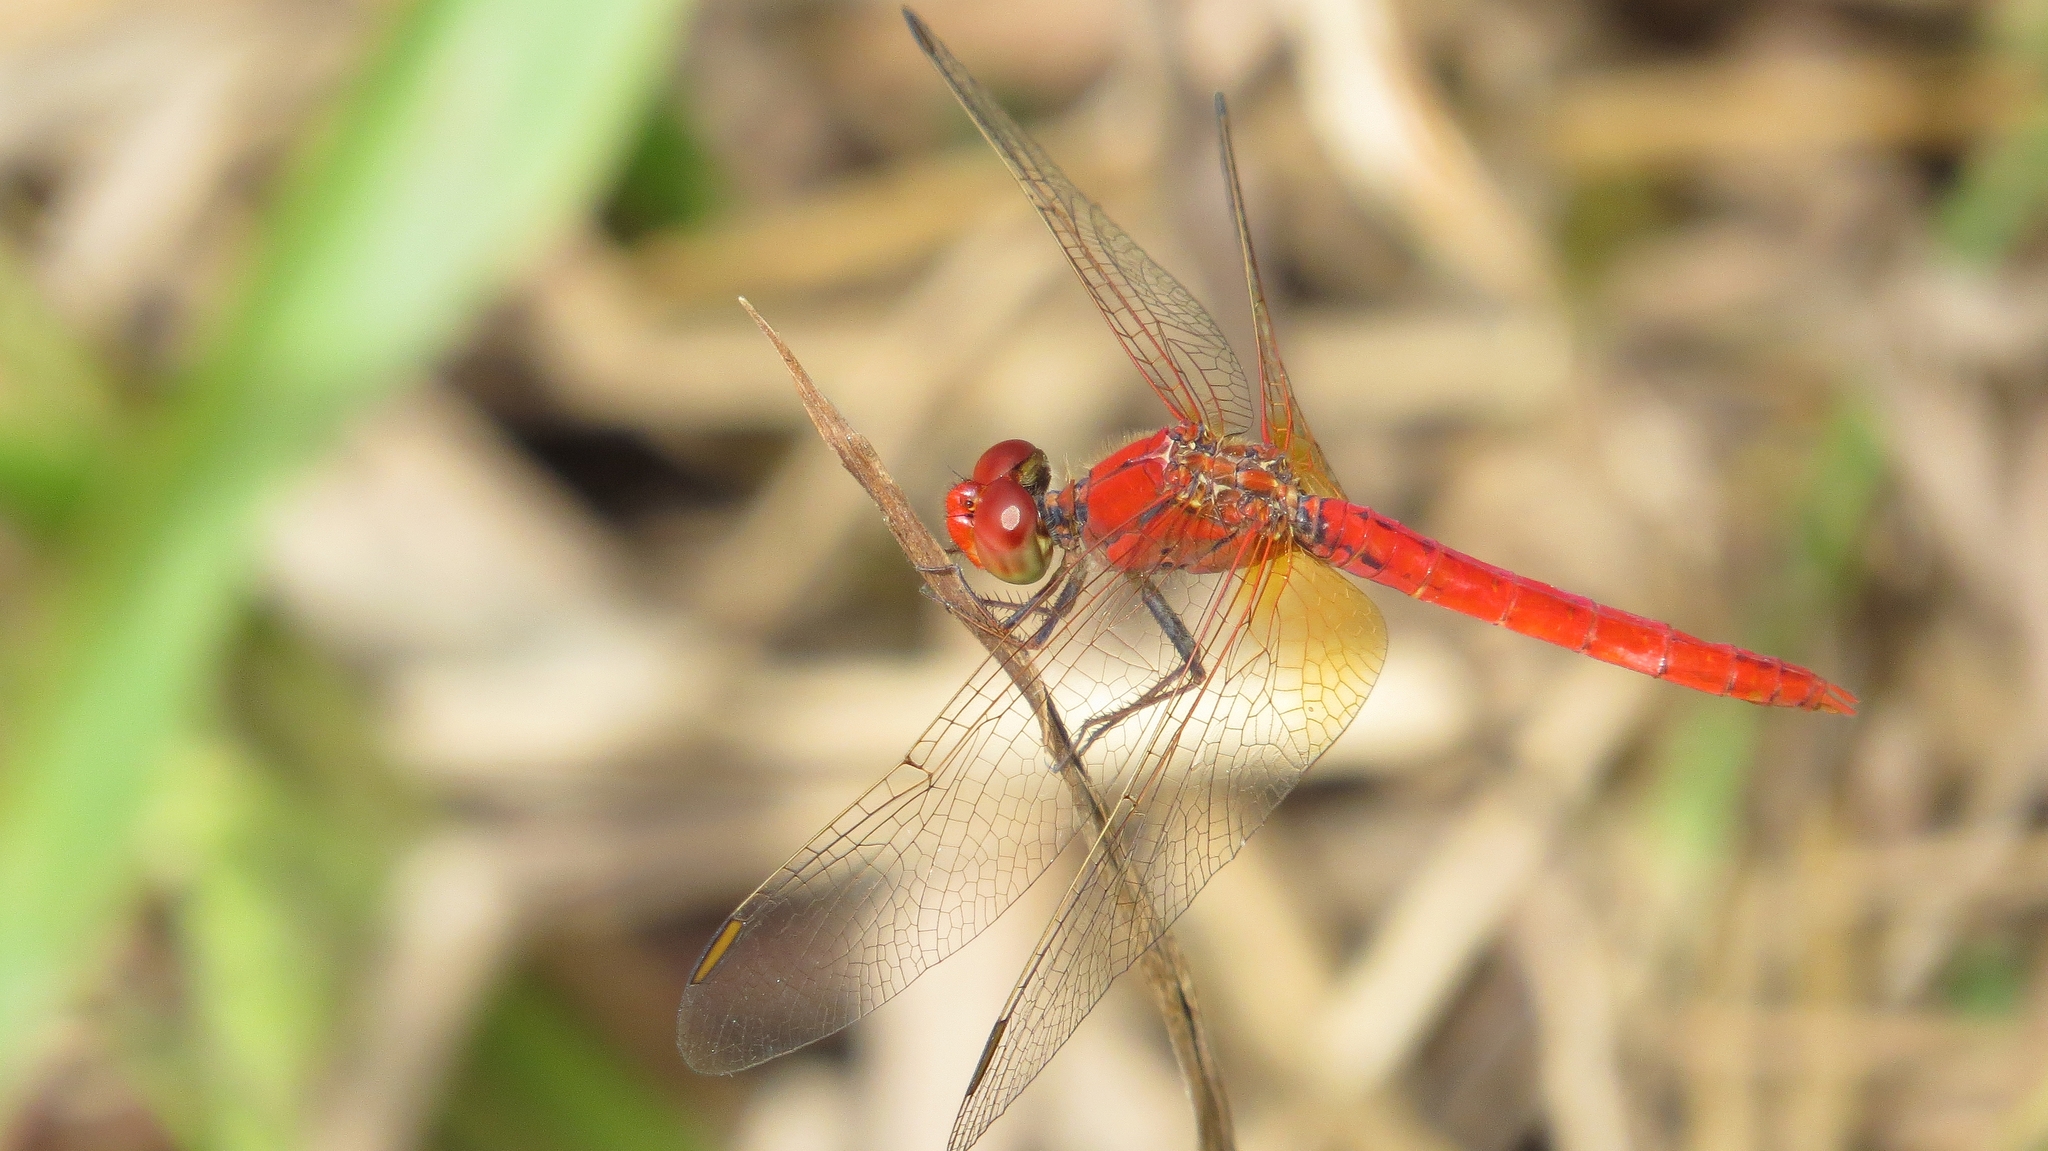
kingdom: Animalia
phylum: Arthropoda
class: Insecta
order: Odonata
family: Libellulidae
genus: Diplacodes
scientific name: Diplacodes haematodes
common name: Scarlet percher
